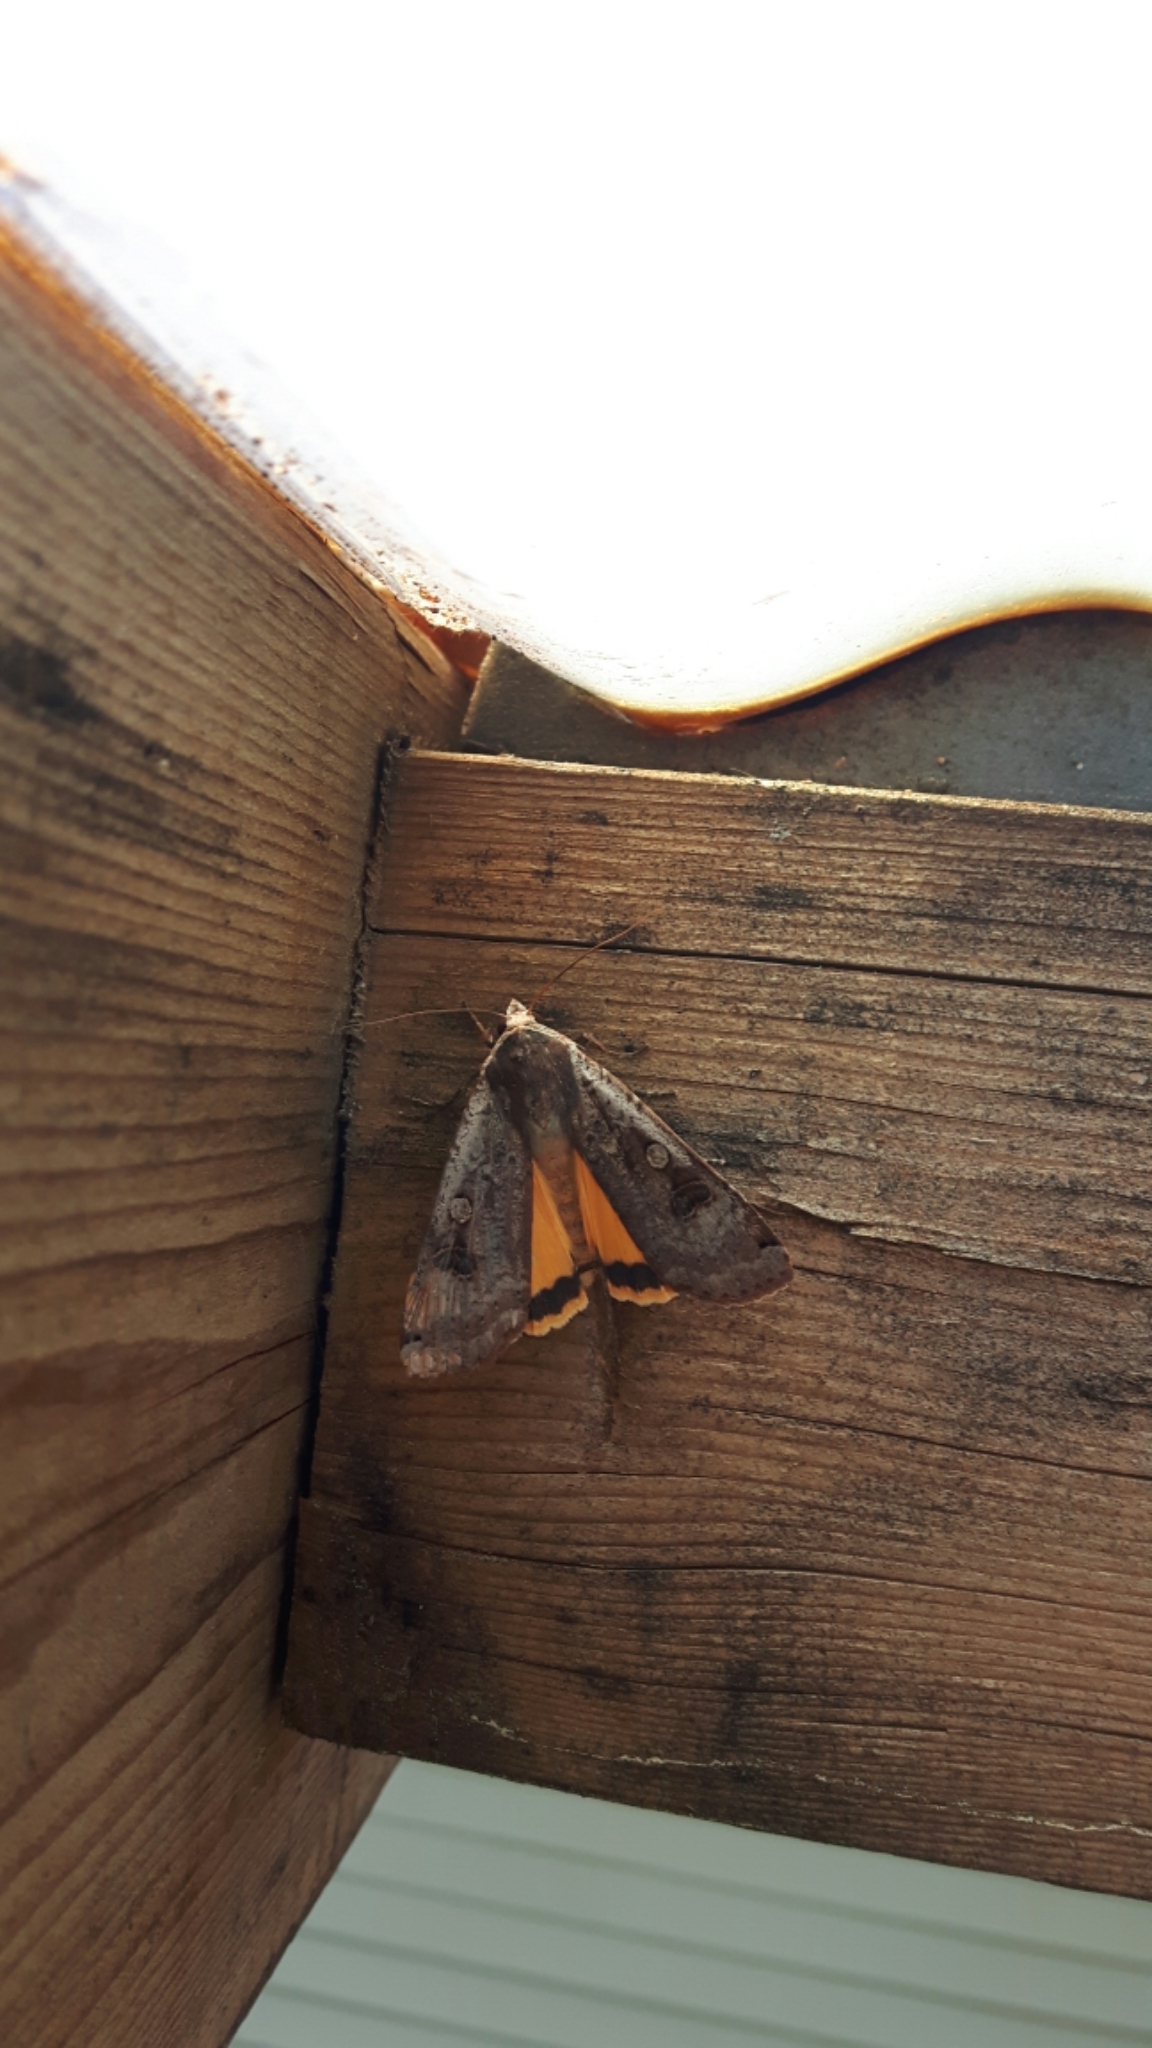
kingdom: Animalia
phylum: Arthropoda
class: Insecta
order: Lepidoptera
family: Noctuidae
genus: Noctua
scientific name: Noctua pronuba
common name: Large yellow underwing
